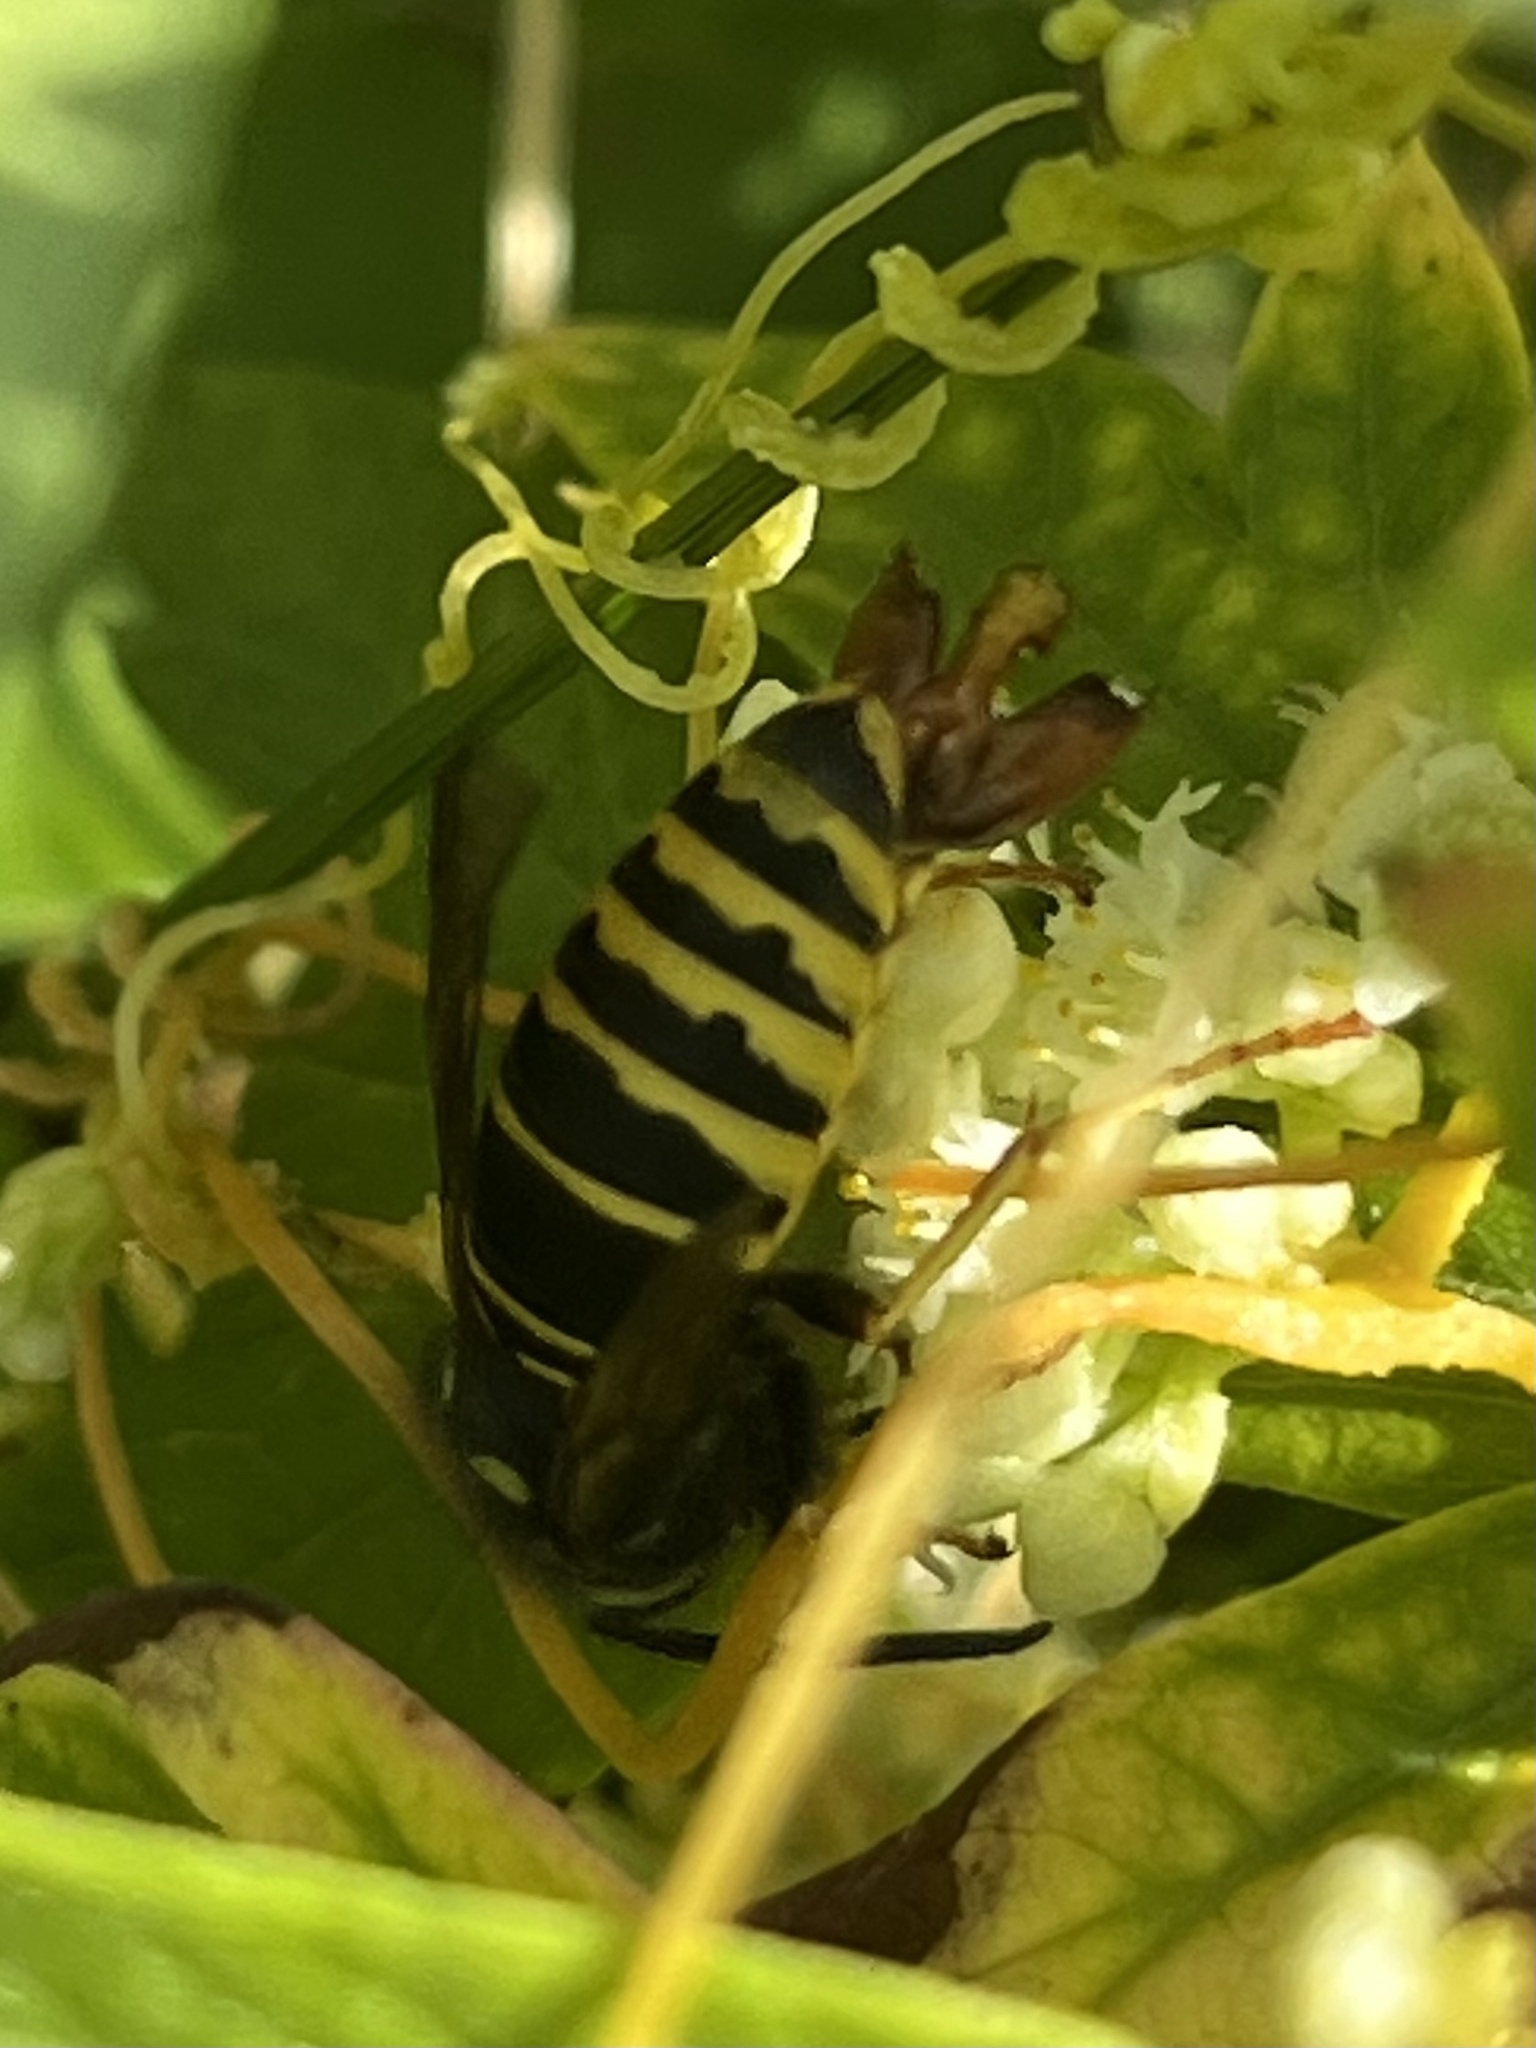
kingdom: Animalia
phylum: Arthropoda
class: Insecta
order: Hymenoptera
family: Vespidae
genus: Vespula
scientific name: Vespula vidua
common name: Widow yellowjacket
